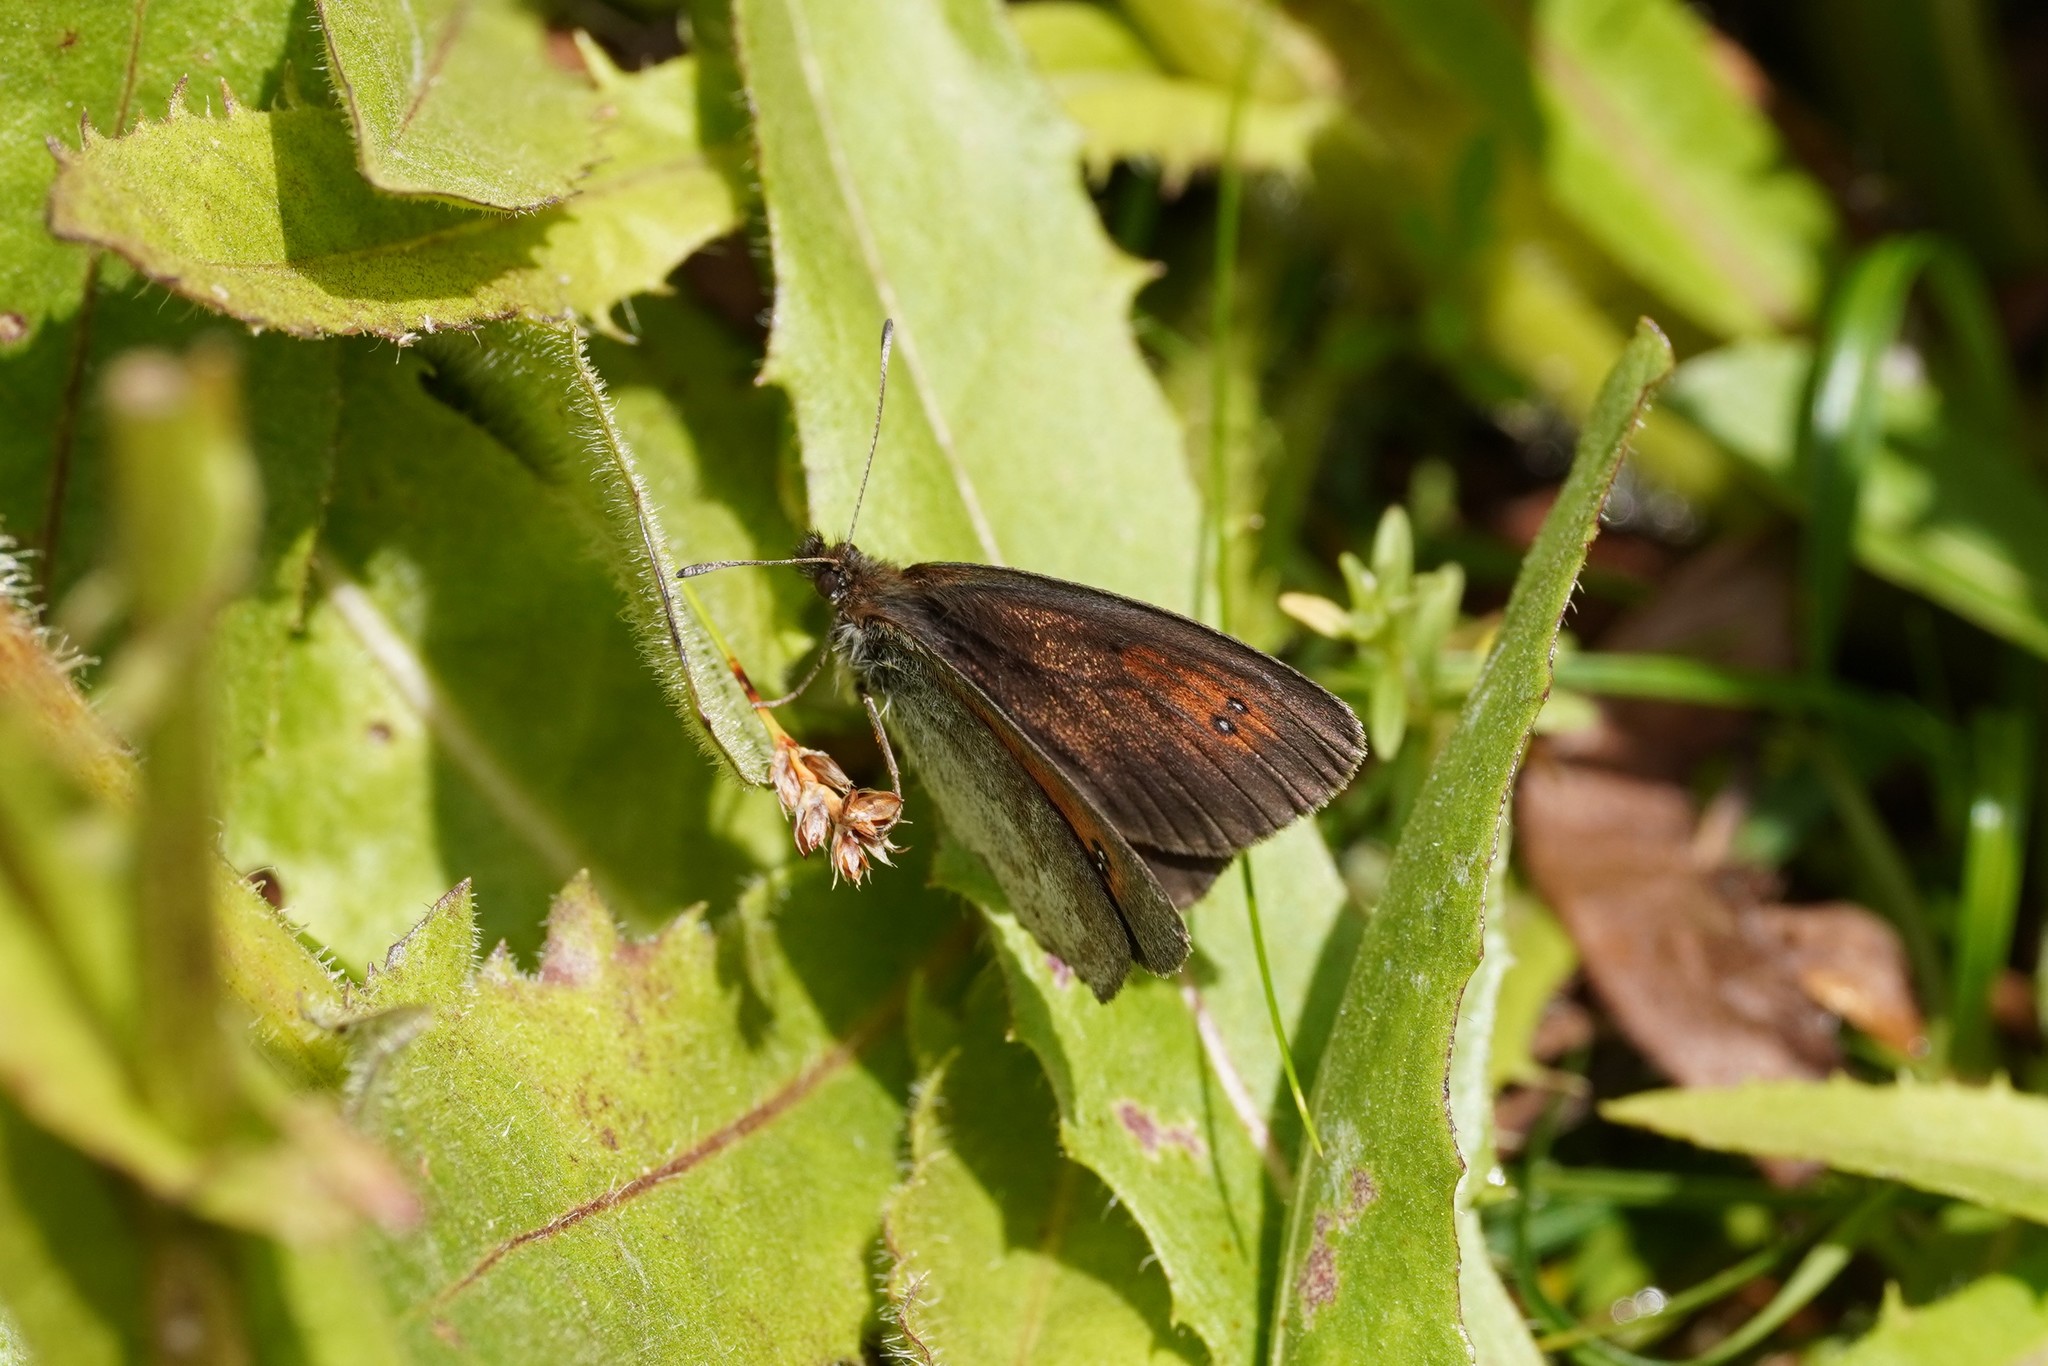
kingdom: Animalia
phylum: Arthropoda
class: Insecta
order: Lepidoptera
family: Nymphalidae
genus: Erebia
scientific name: Erebia tyndarus
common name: Swiss brassy ringlet
